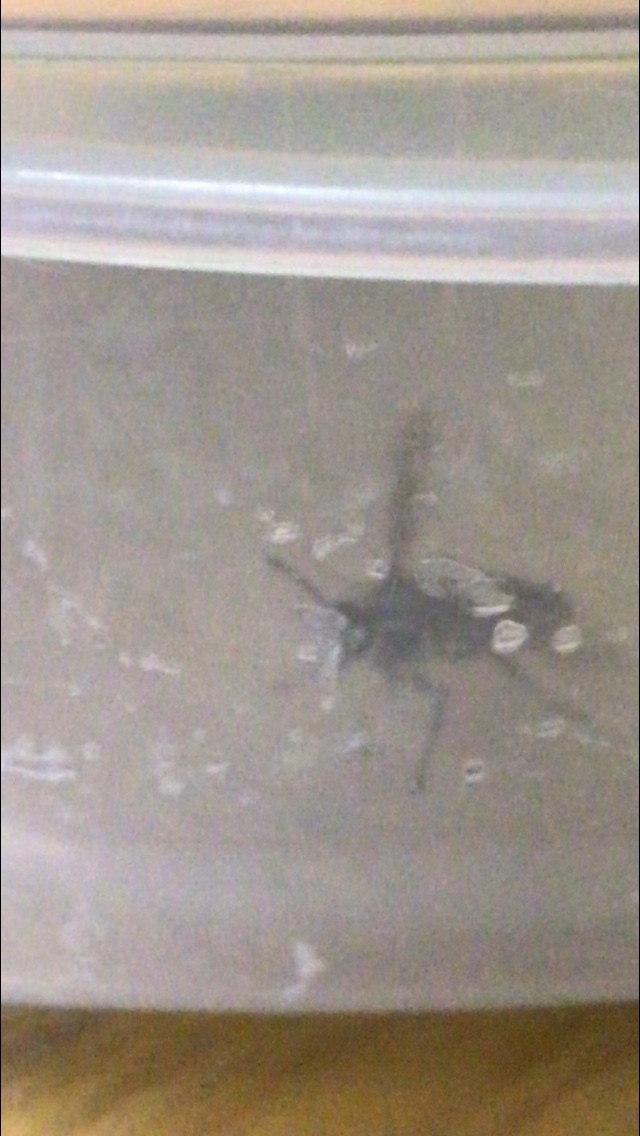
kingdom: Animalia
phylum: Arthropoda
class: Insecta
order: Hymenoptera
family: Vespidae
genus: Dolichovespula
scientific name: Dolichovespula maculata
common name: Bald-faced hornet
